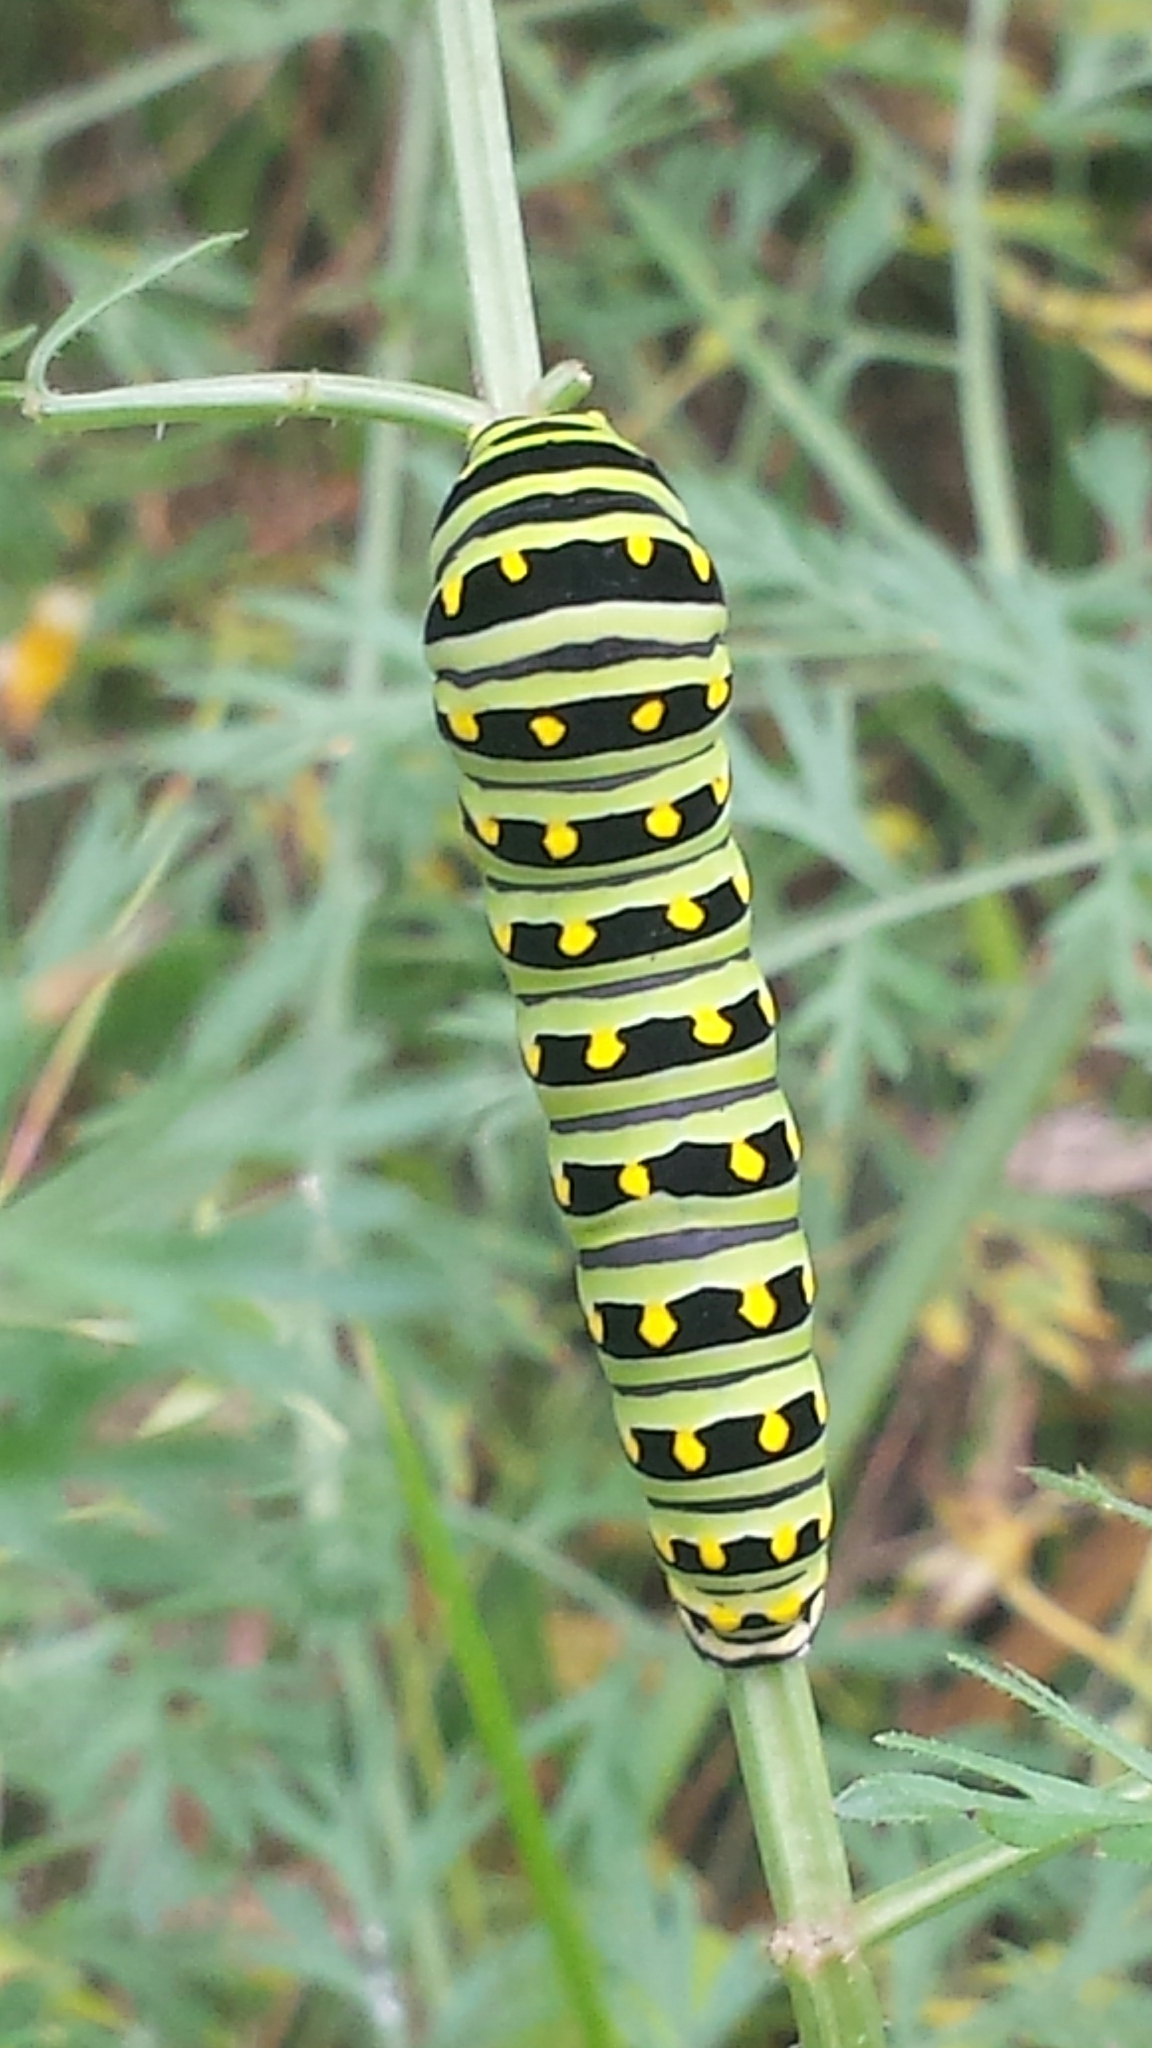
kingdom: Animalia
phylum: Arthropoda
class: Insecta
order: Lepidoptera
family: Papilionidae
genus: Papilio
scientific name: Papilio polyxenes
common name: Black swallowtail
